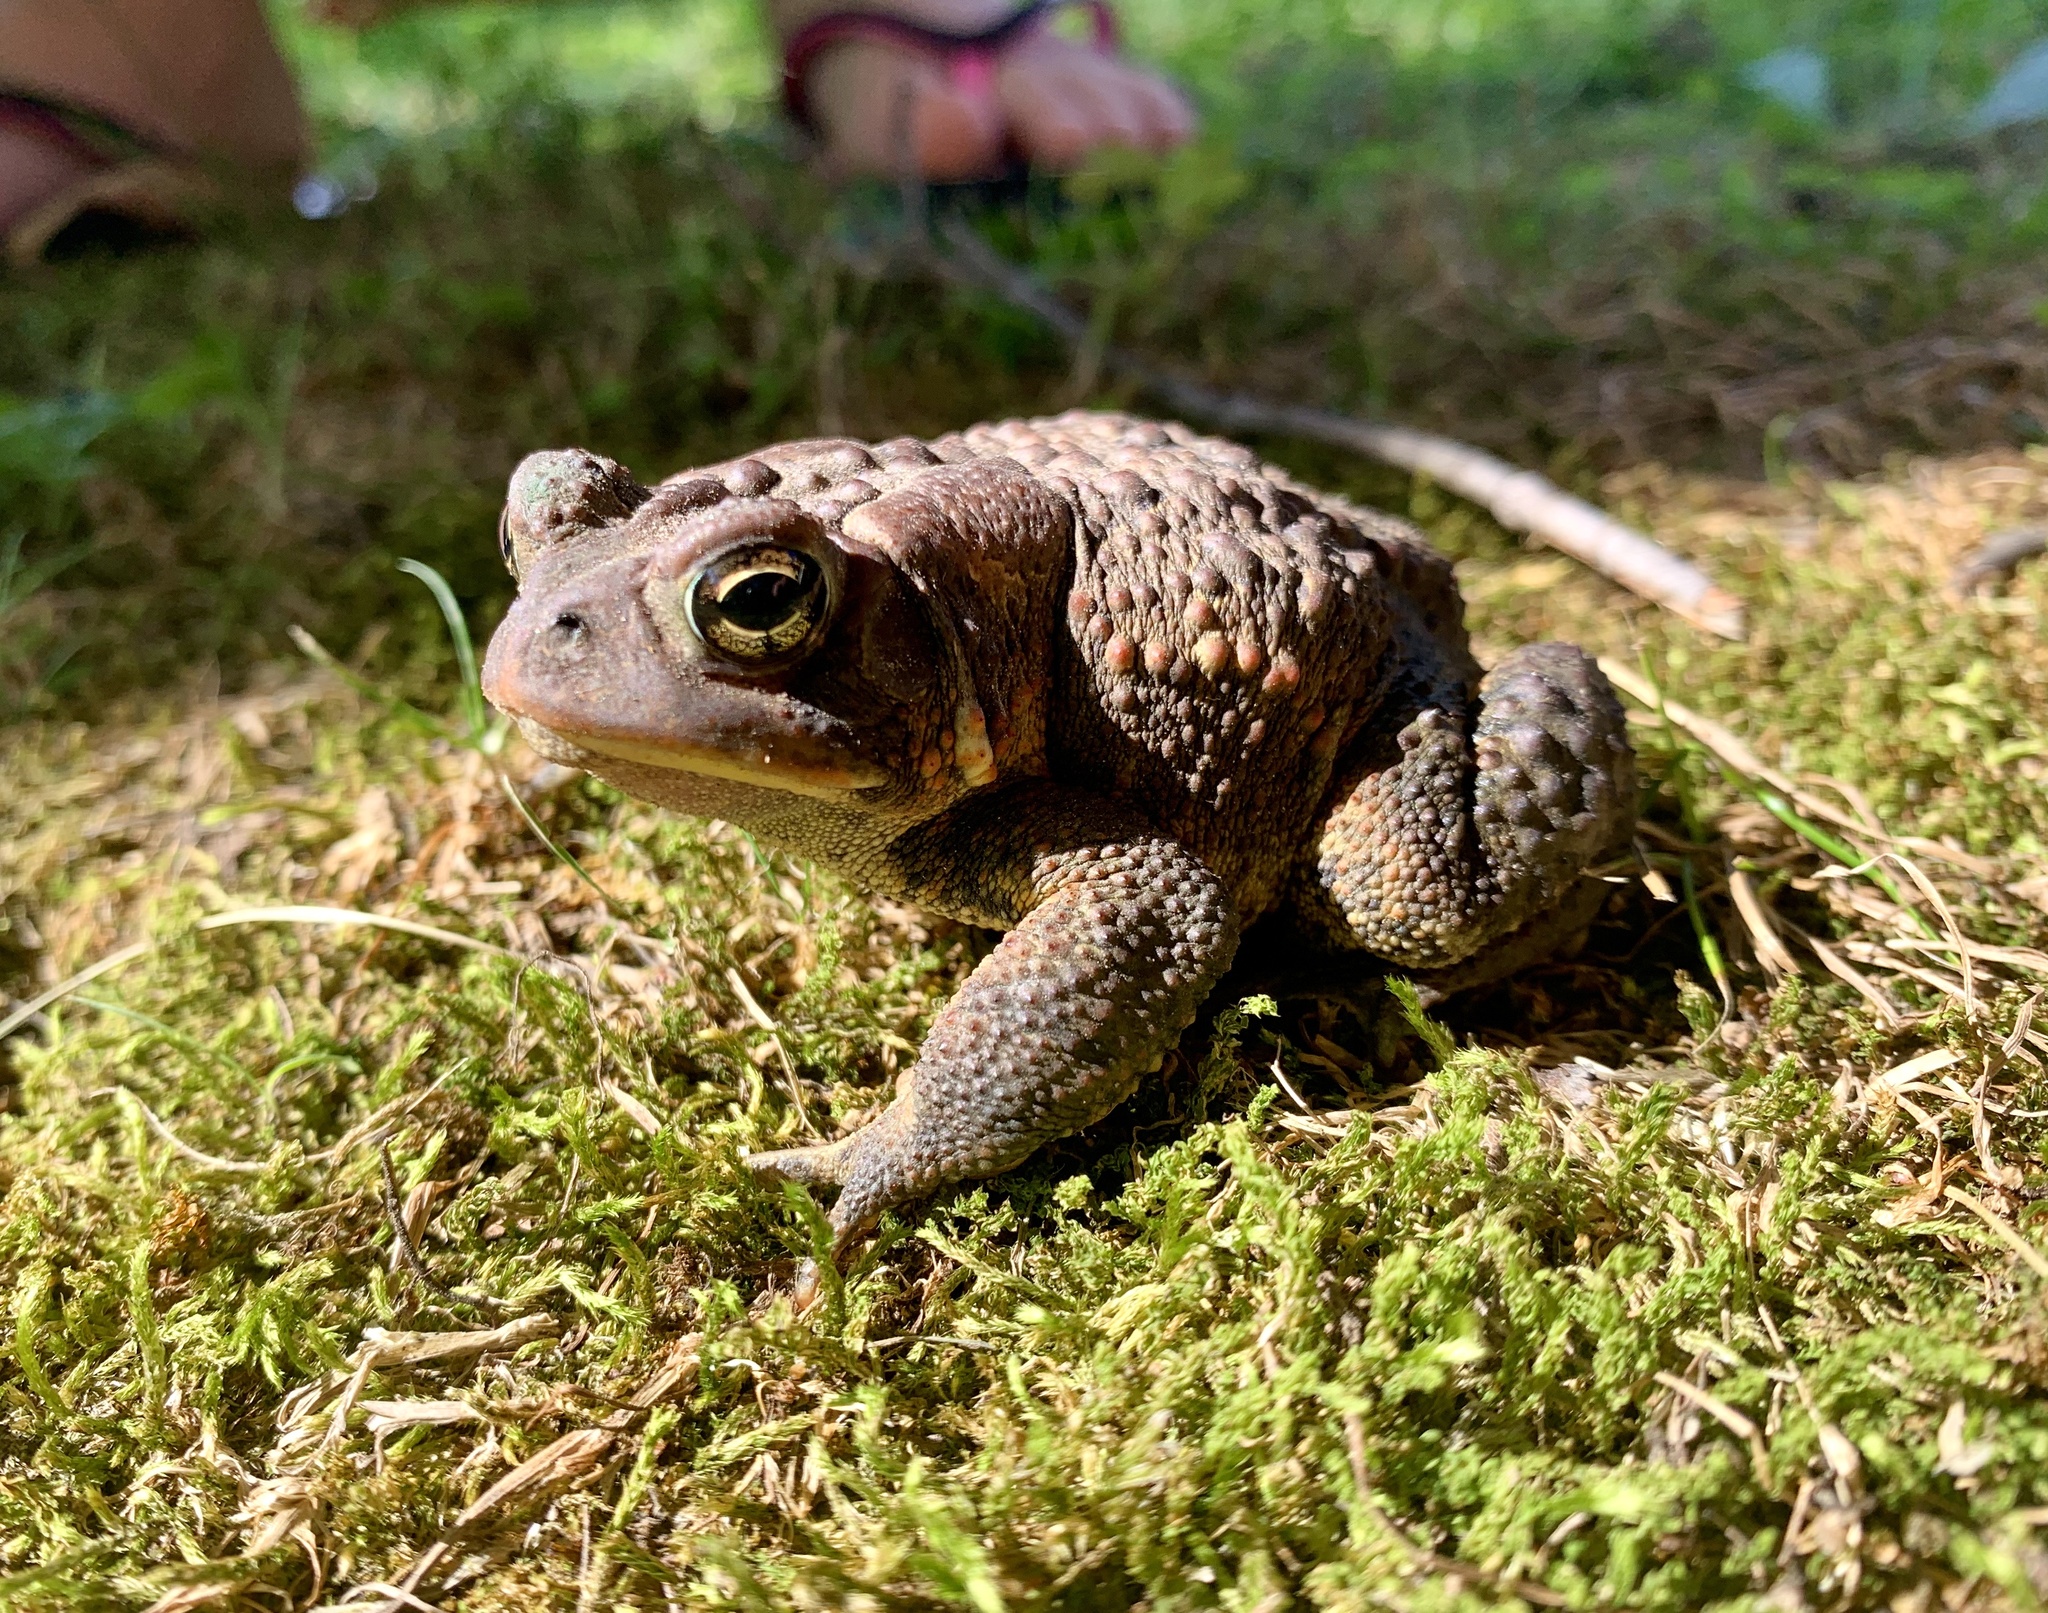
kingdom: Animalia
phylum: Chordata
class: Amphibia
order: Anura
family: Bufonidae
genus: Anaxyrus
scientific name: Anaxyrus americanus
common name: American toad
